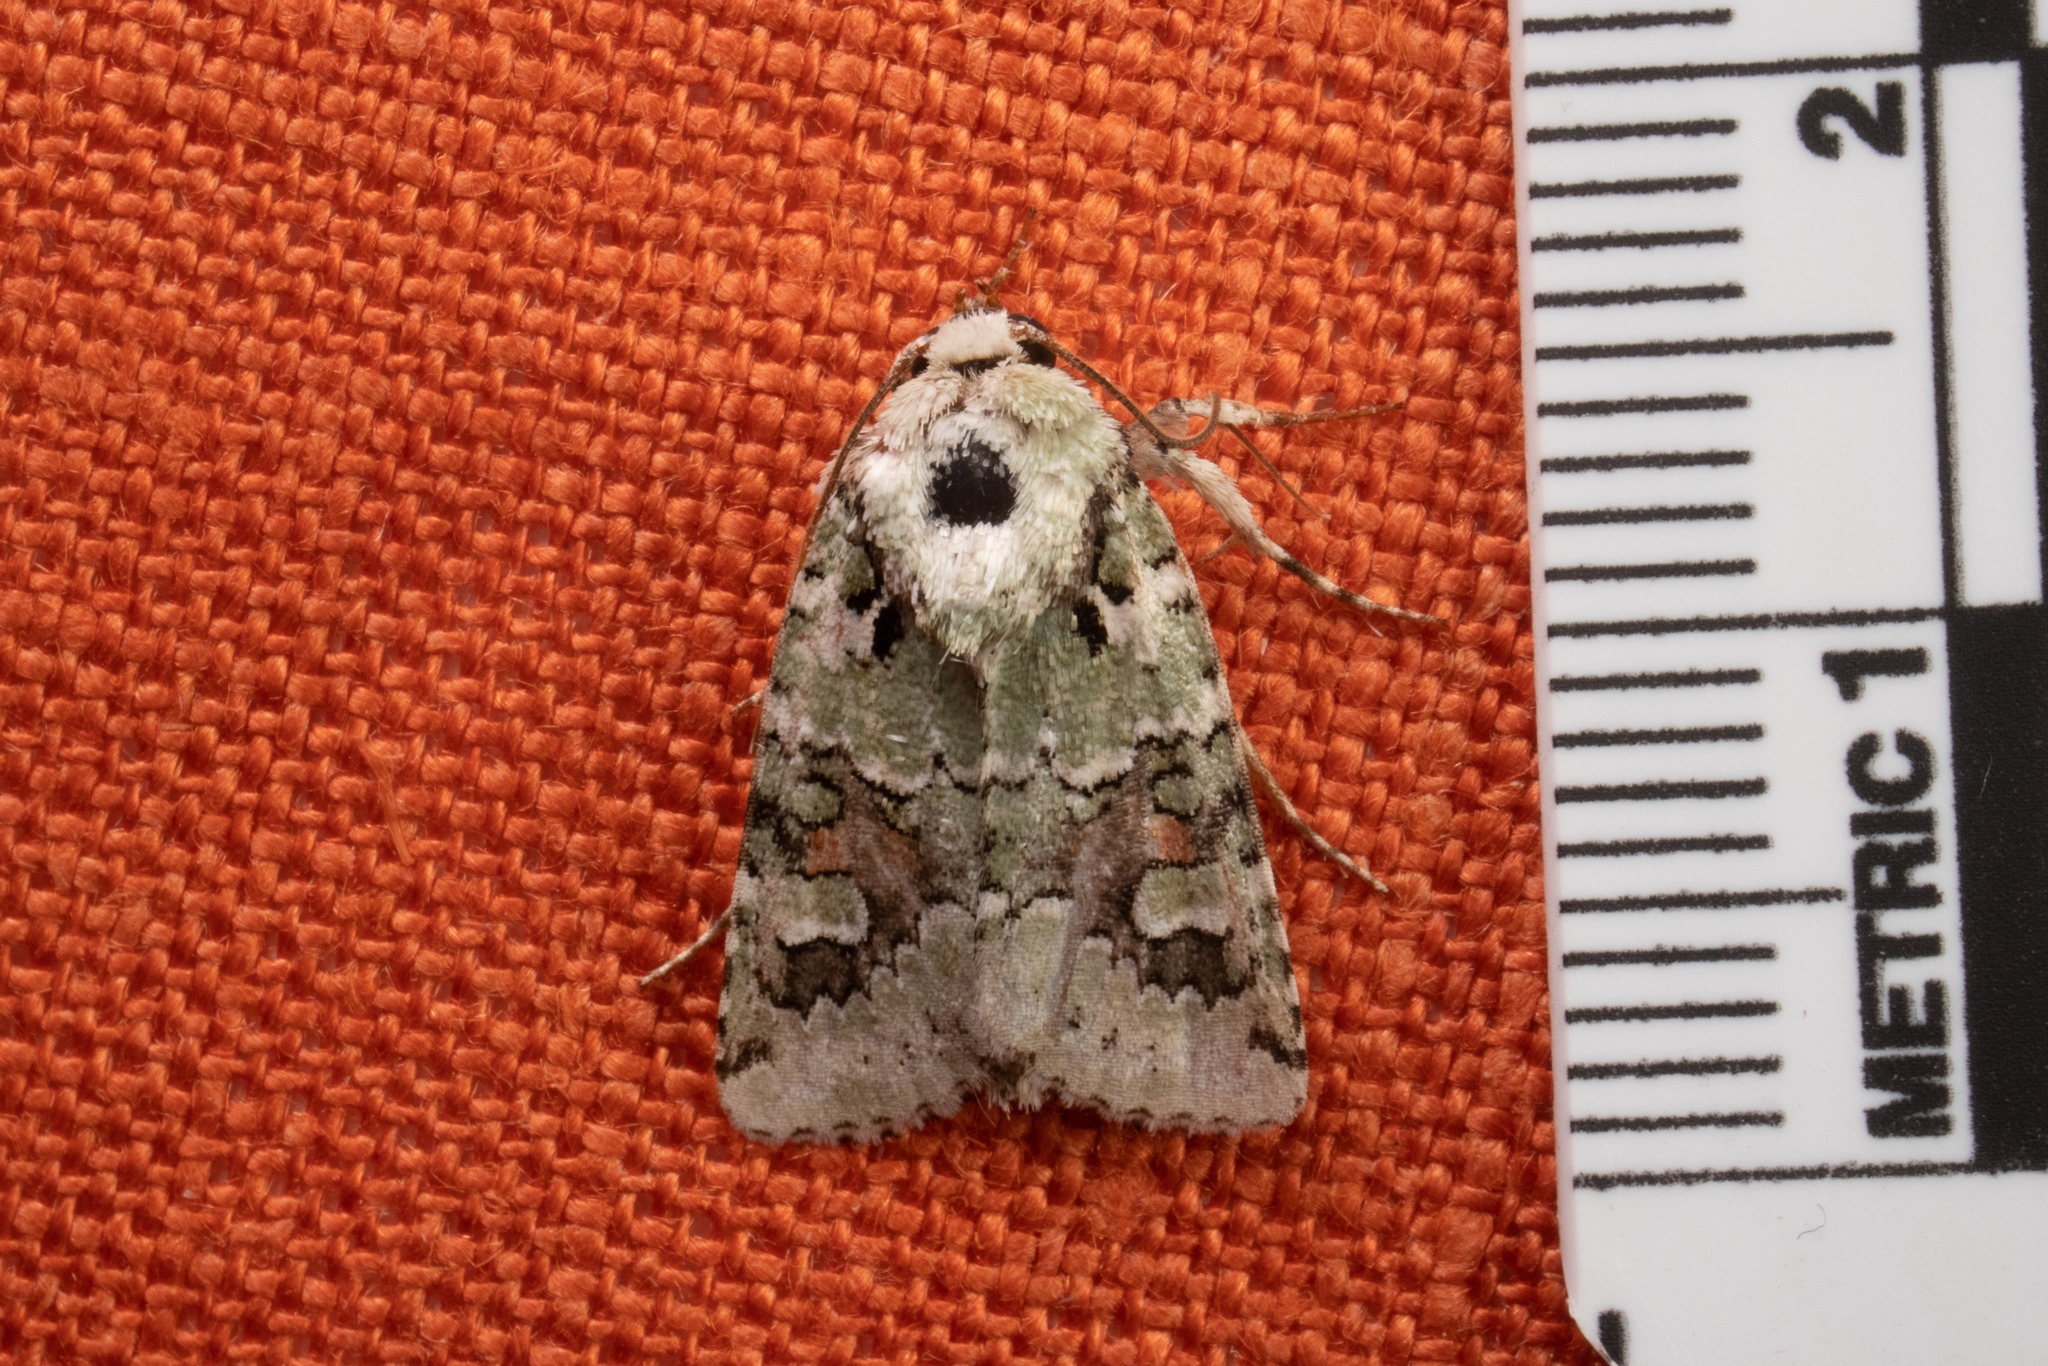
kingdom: Animalia
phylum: Arthropoda
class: Insecta
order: Lepidoptera
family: Noctuidae
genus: Lacinipolia
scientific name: Lacinipolia laudabilis
